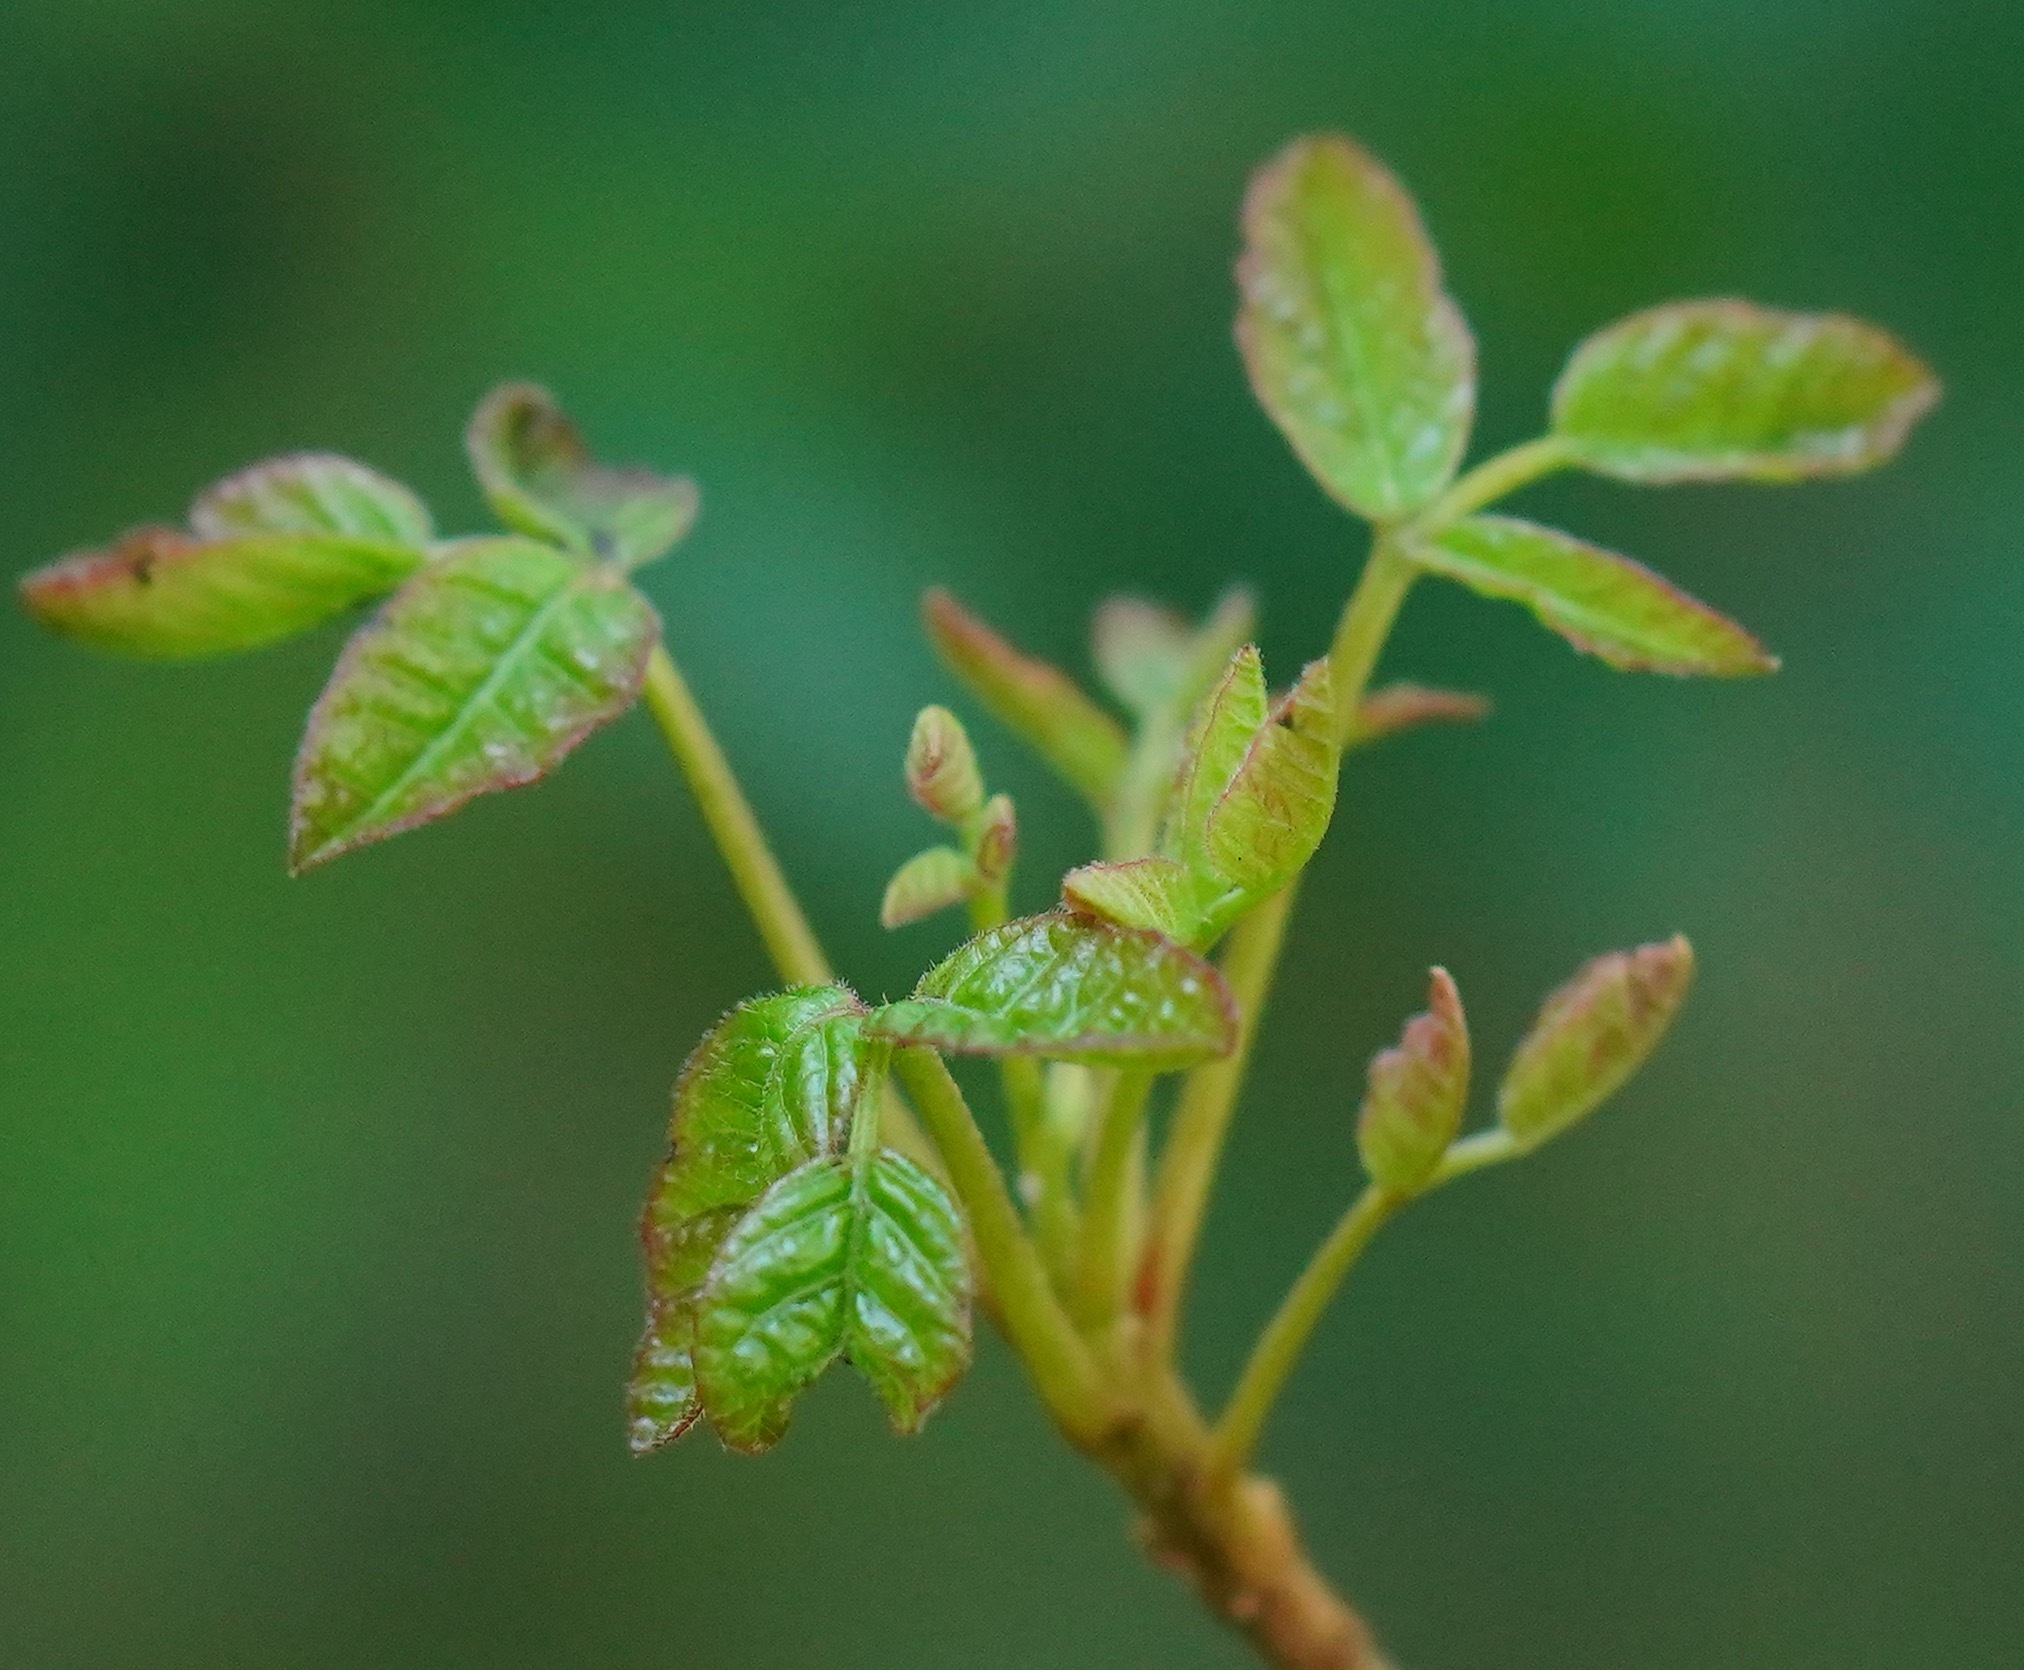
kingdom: Plantae
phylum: Tracheophyta
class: Magnoliopsida
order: Sapindales
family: Anacardiaceae
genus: Toxicodendron
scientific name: Toxicodendron diversilobum
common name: Pacific poison-oak
